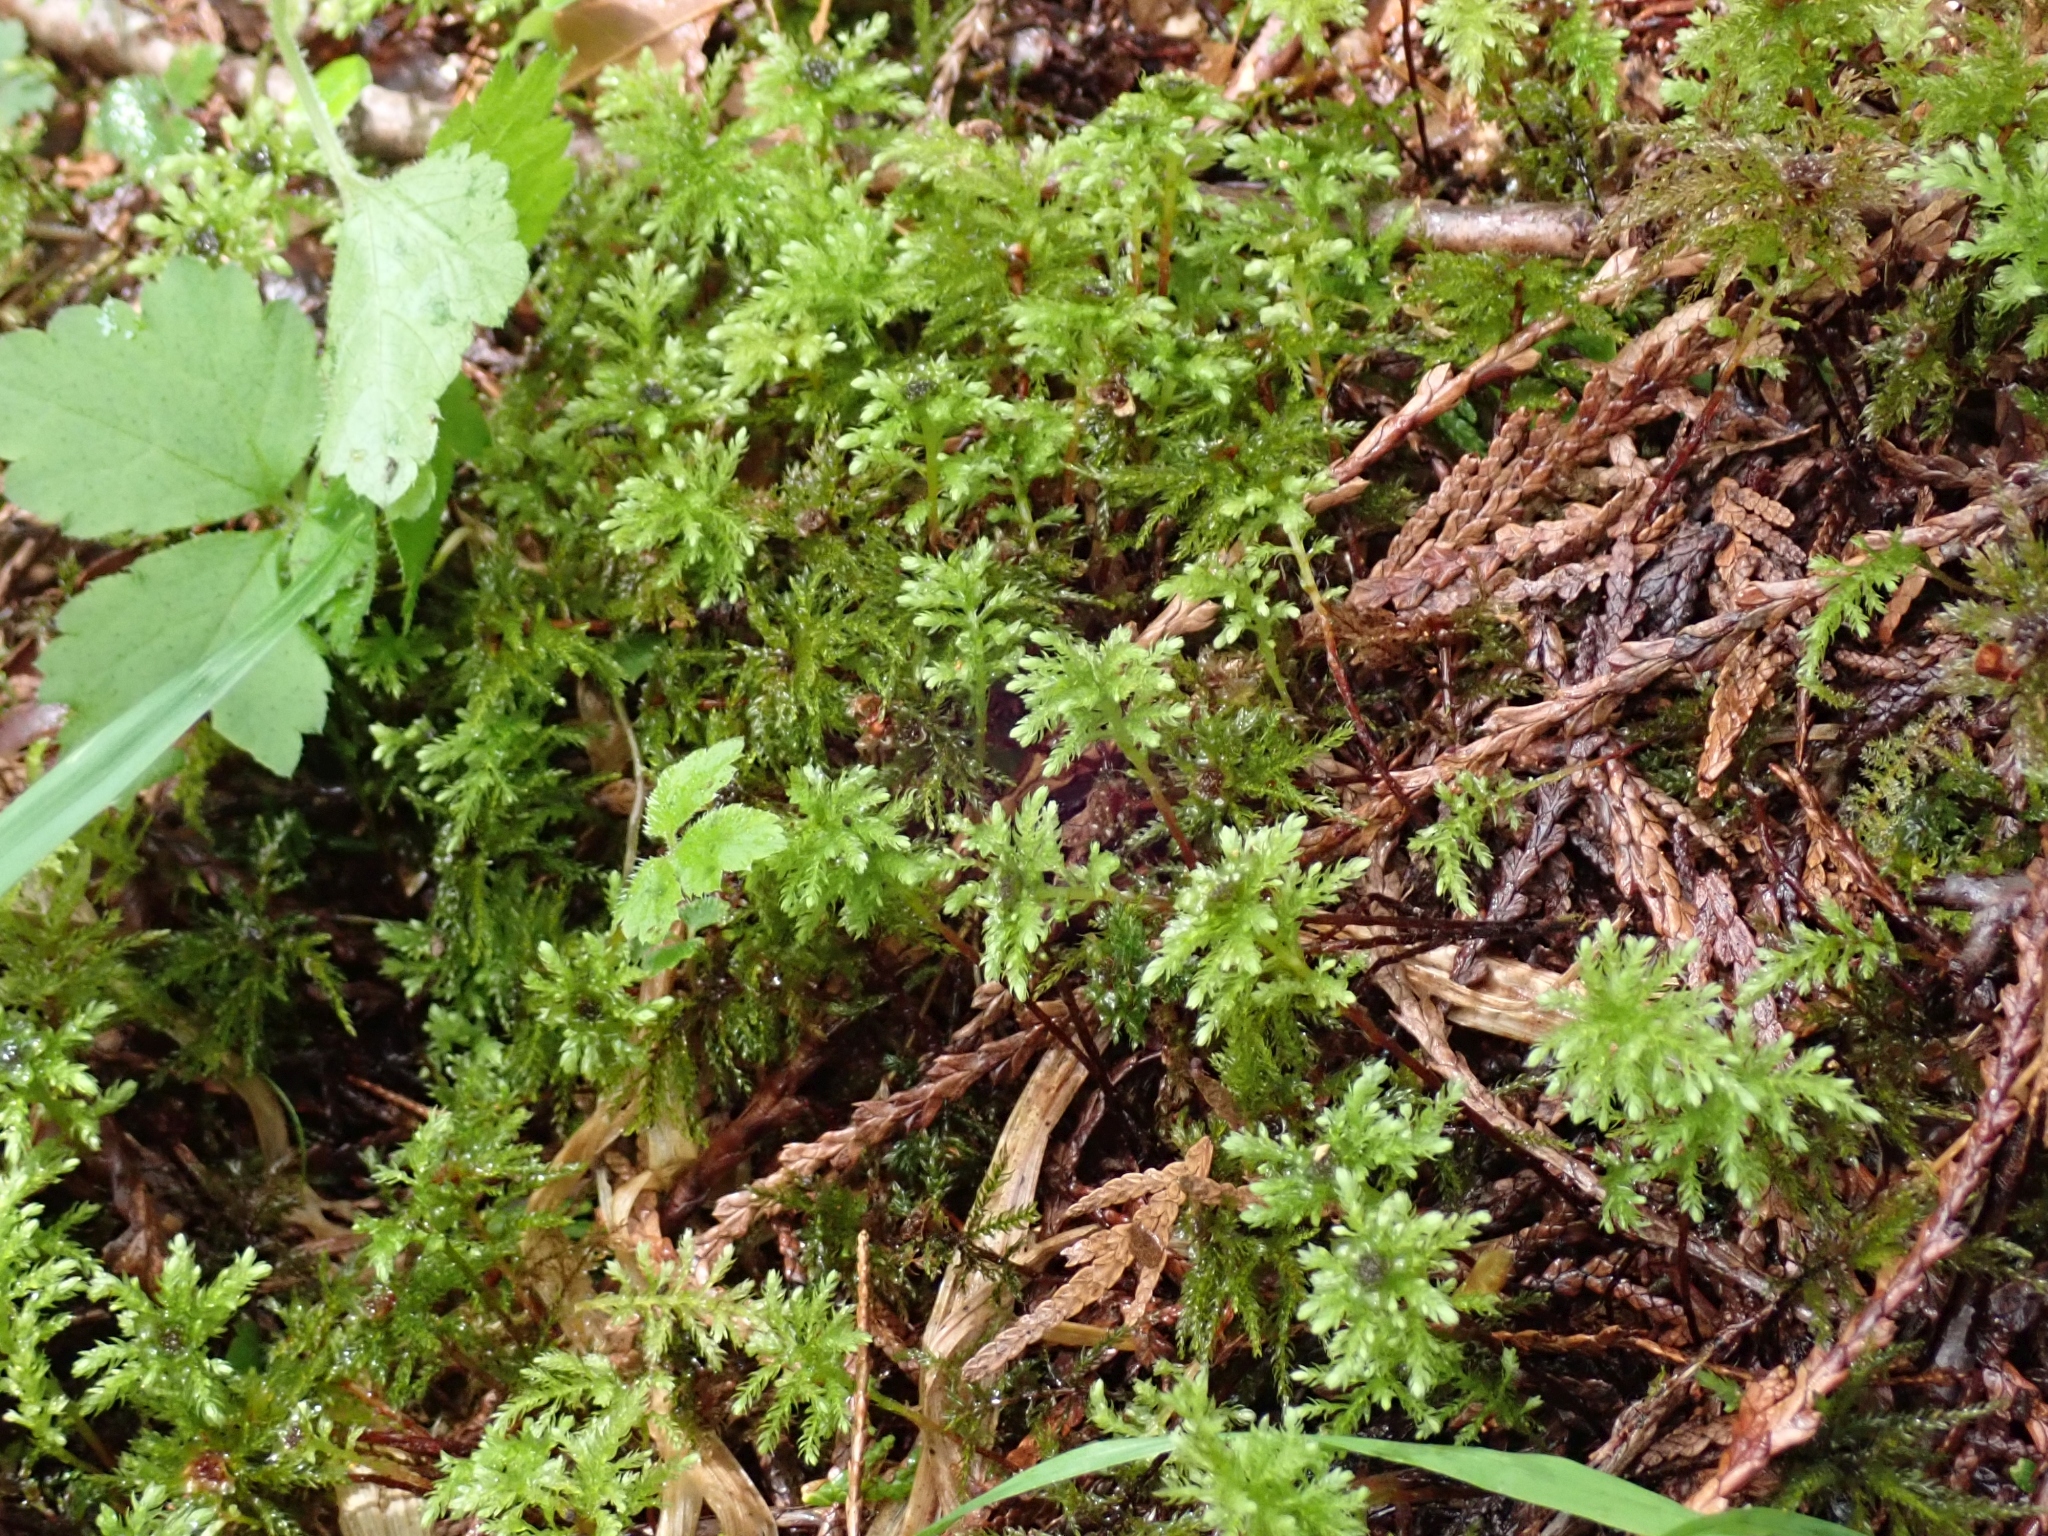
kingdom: Plantae
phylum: Bryophyta
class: Bryopsida
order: Bryales
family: Mniaceae
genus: Leucolepis
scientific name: Leucolepis acanthoneura
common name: Leucolepis umbrella moss
